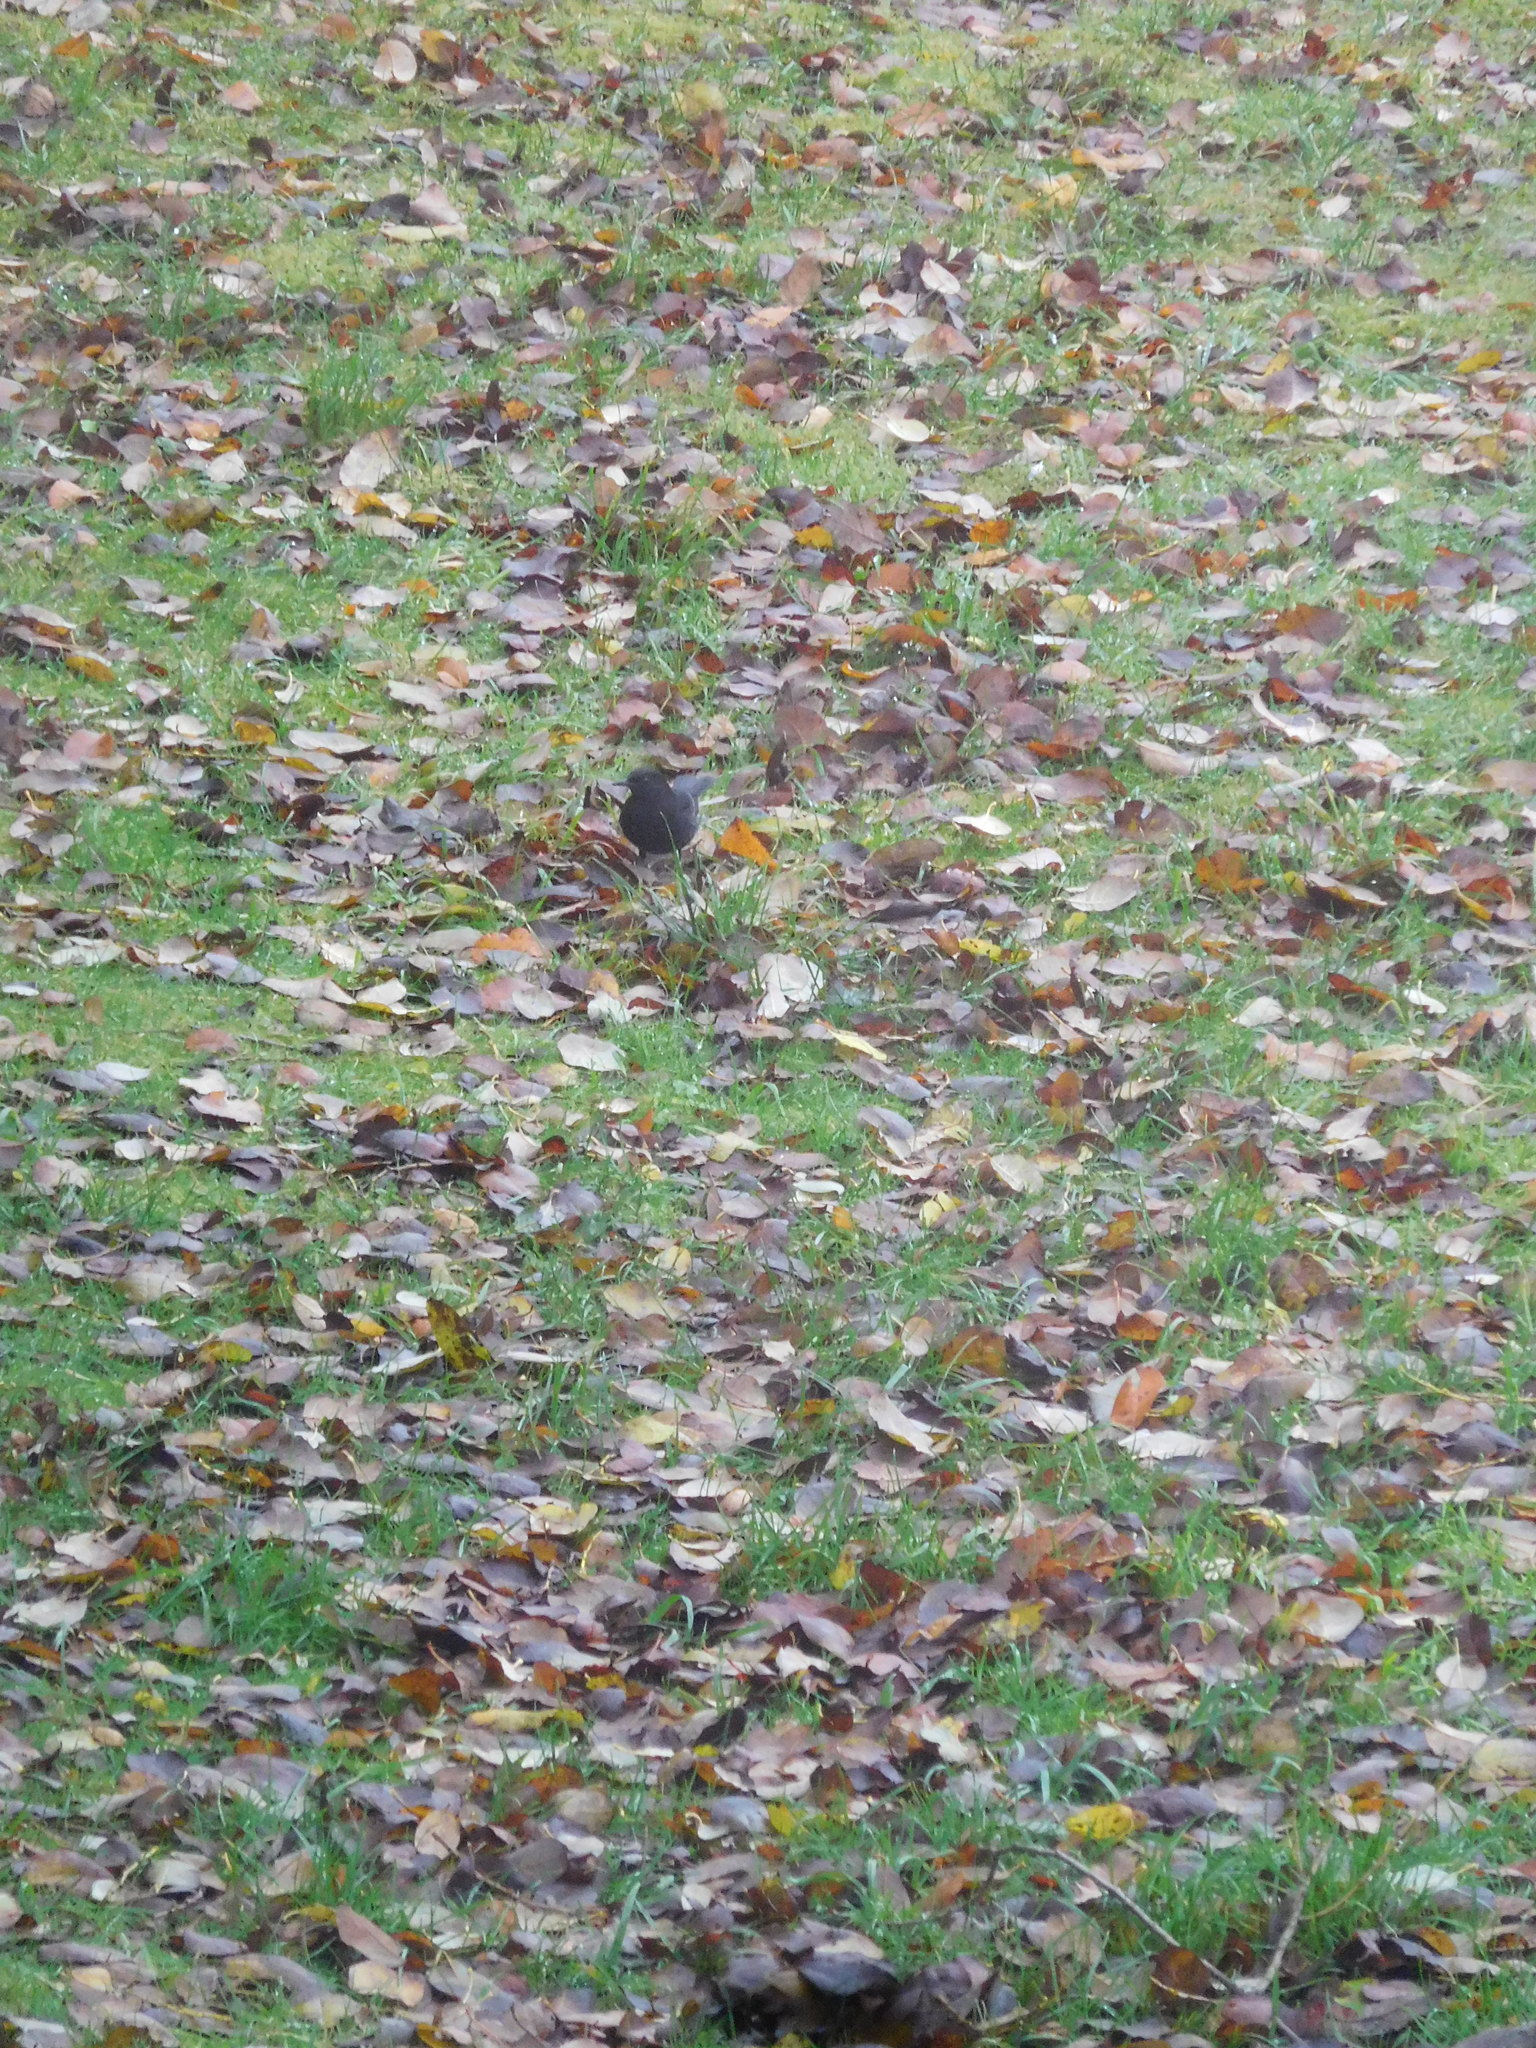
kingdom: Animalia
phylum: Chordata
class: Aves
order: Passeriformes
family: Turdidae
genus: Turdus
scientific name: Turdus merula
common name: Common blackbird
